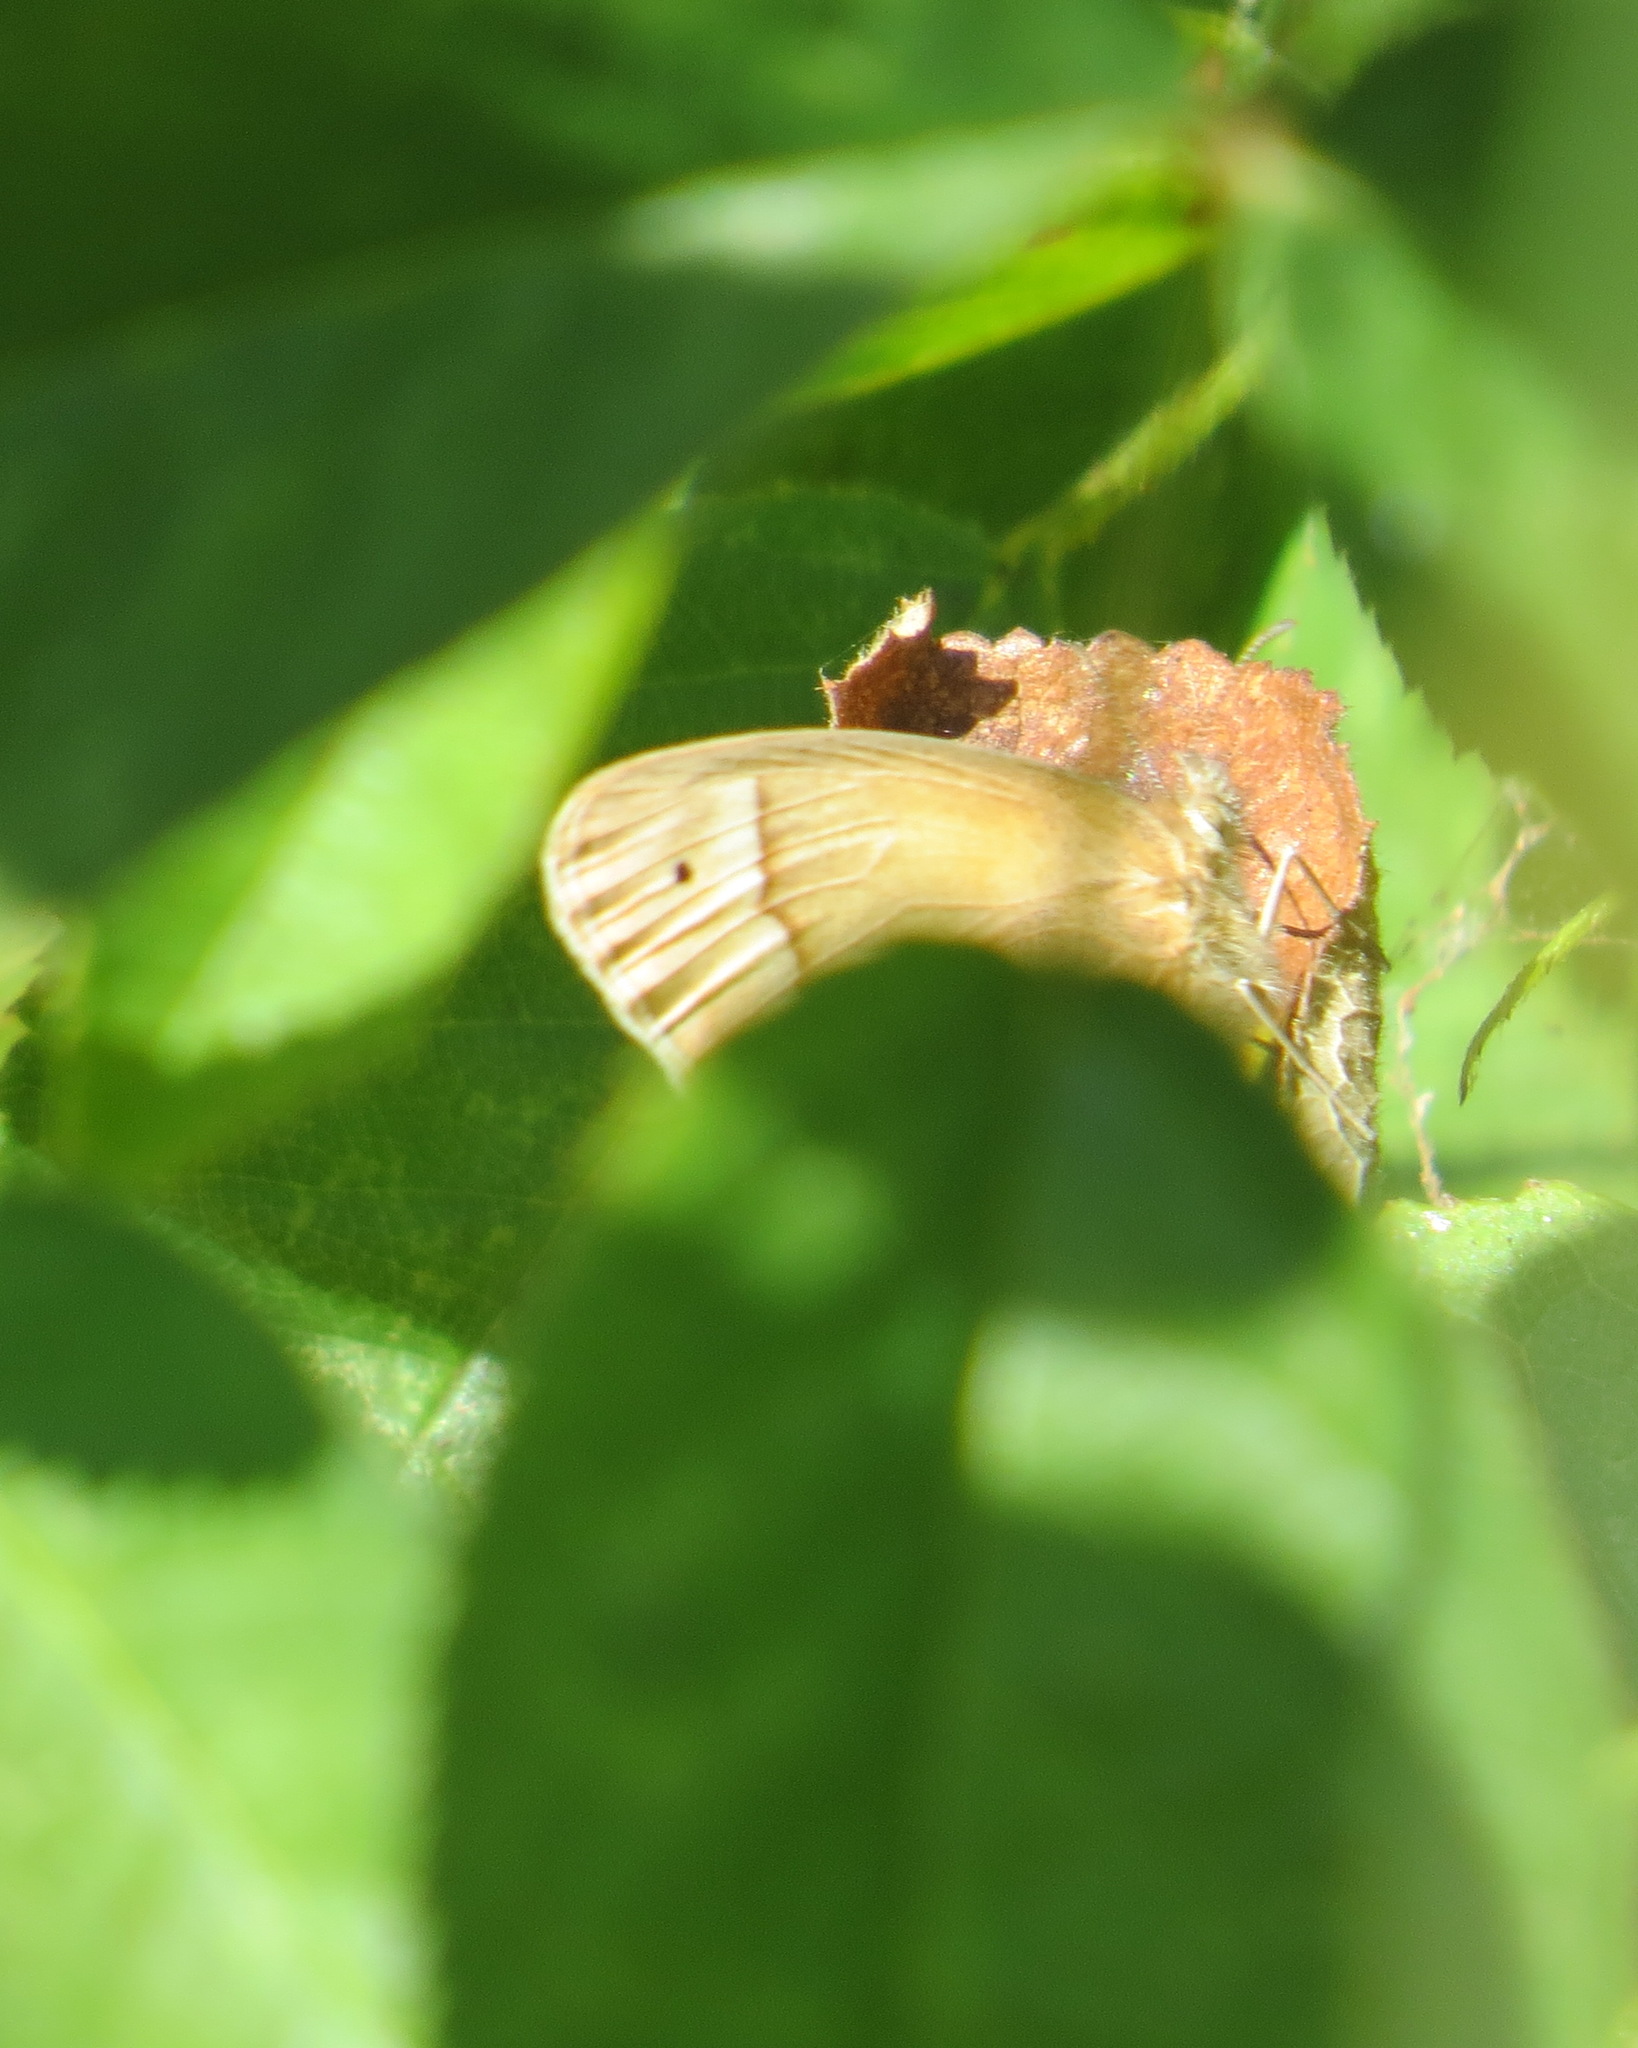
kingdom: Animalia
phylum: Arthropoda
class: Insecta
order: Lepidoptera
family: Nymphalidae
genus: Coenonympha
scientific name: Coenonympha california
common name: Common ringlet
